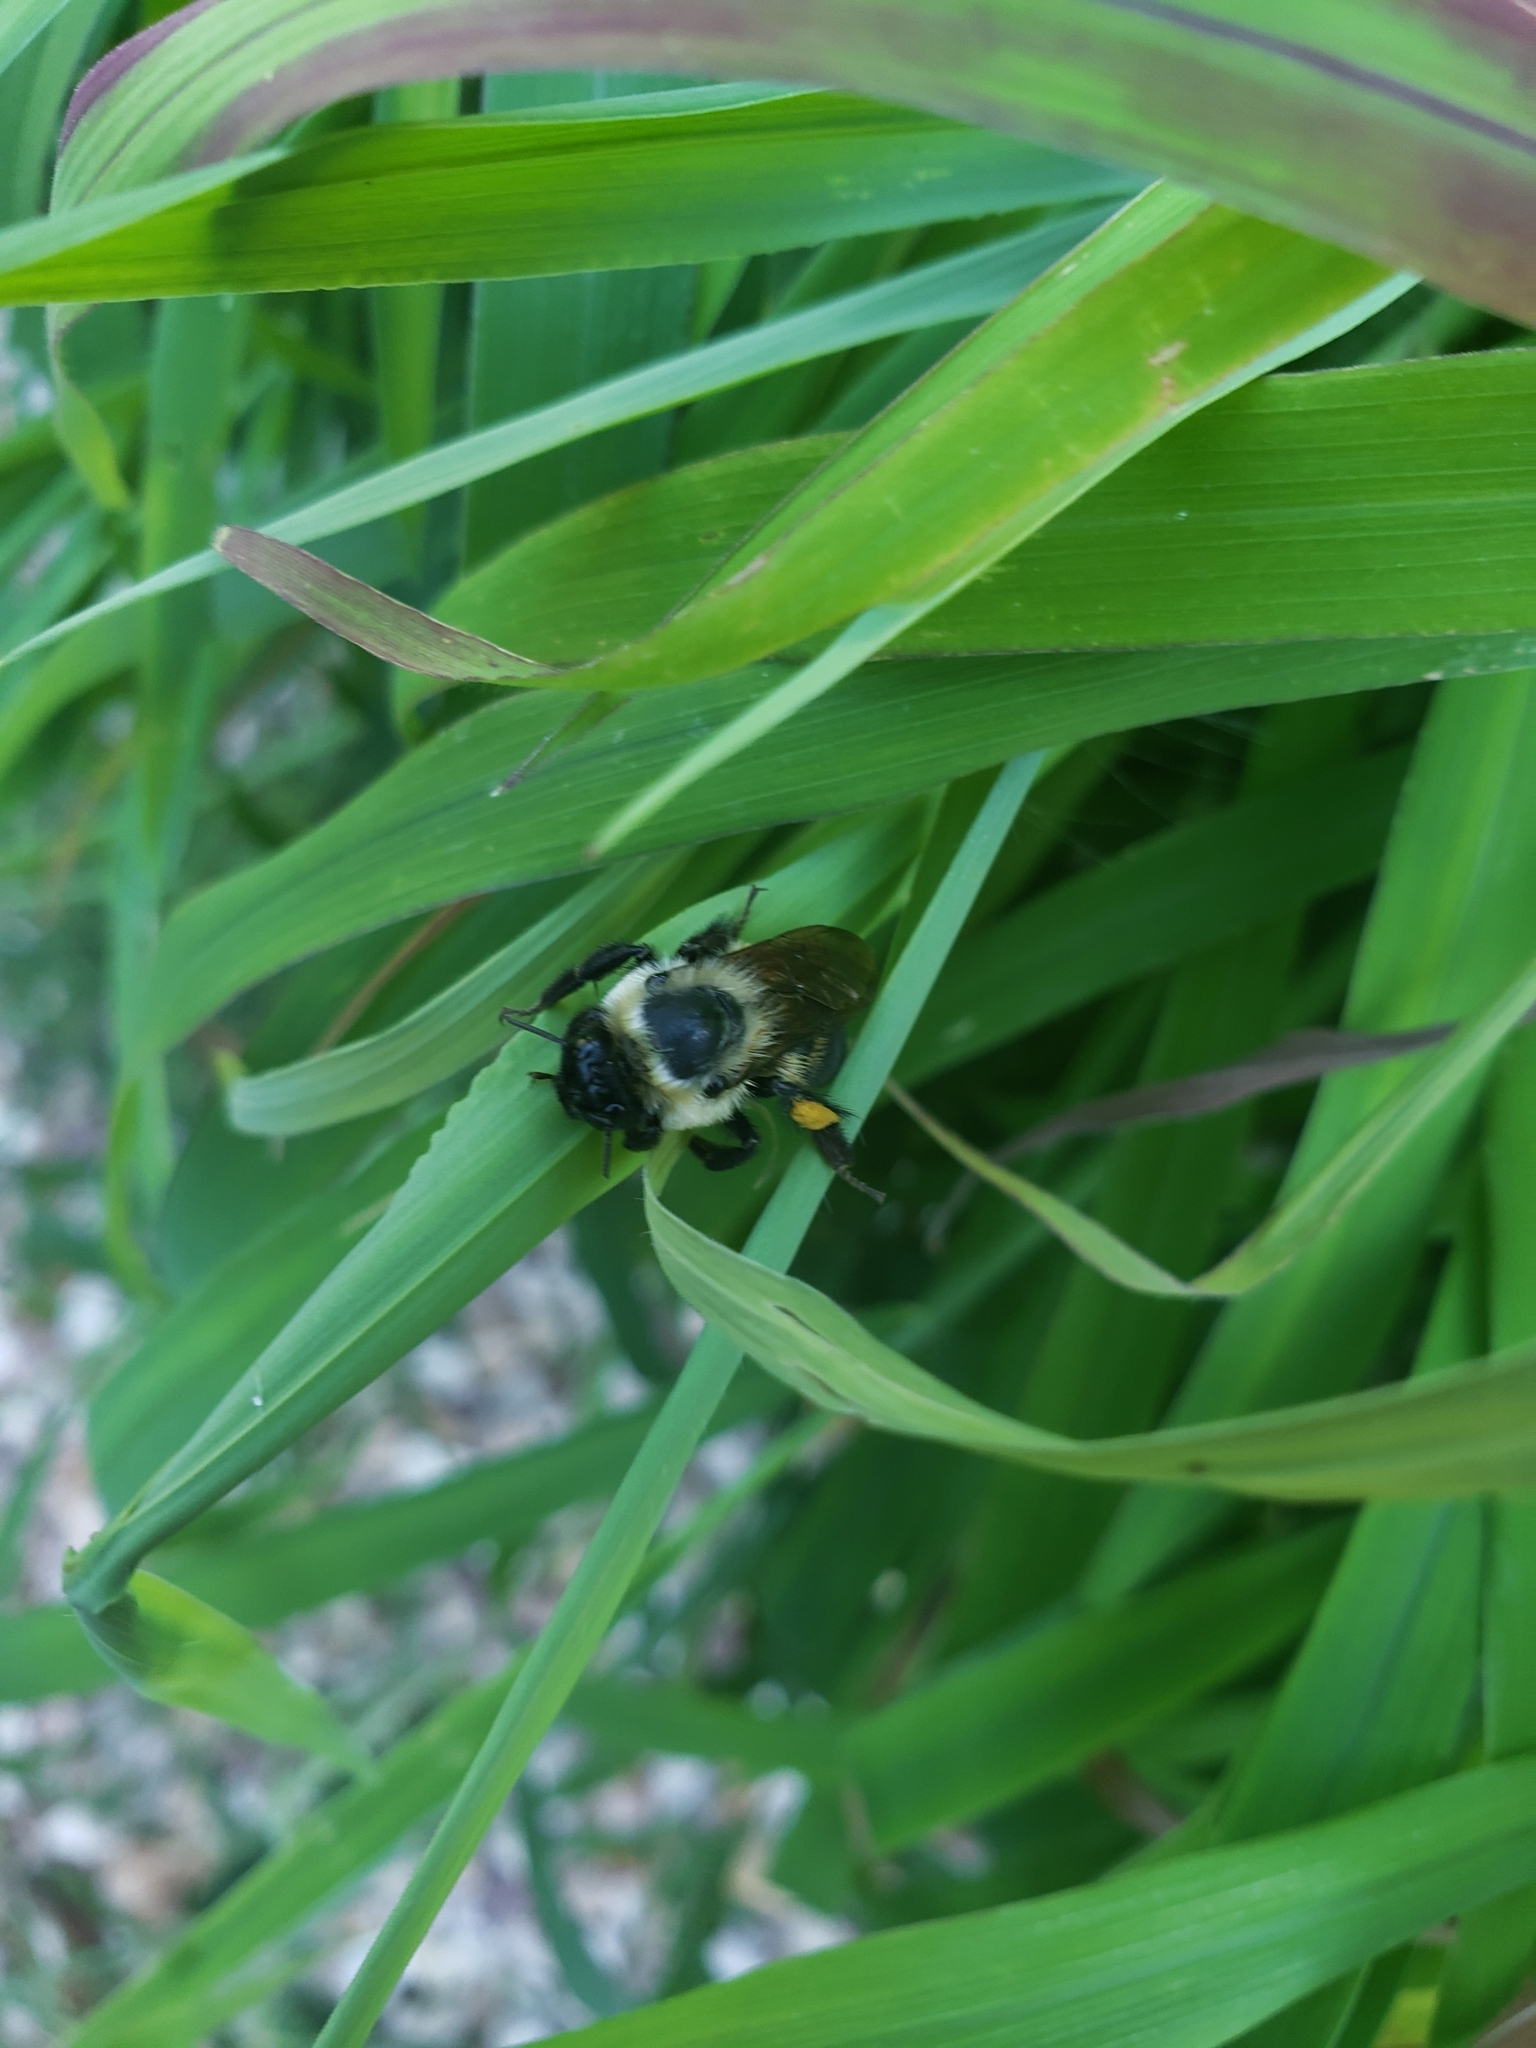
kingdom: Animalia
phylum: Arthropoda
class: Insecta
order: Hymenoptera
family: Apidae
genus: Bombus
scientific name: Bombus griseocollis
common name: Brown-belted bumble bee
